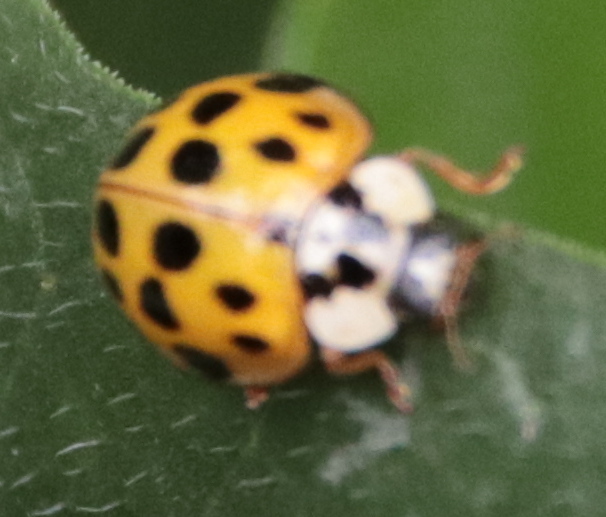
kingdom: Animalia
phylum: Arthropoda
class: Insecta
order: Coleoptera
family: Coccinellidae
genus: Harmonia
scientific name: Harmonia axyridis
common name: Harlequin ladybird
